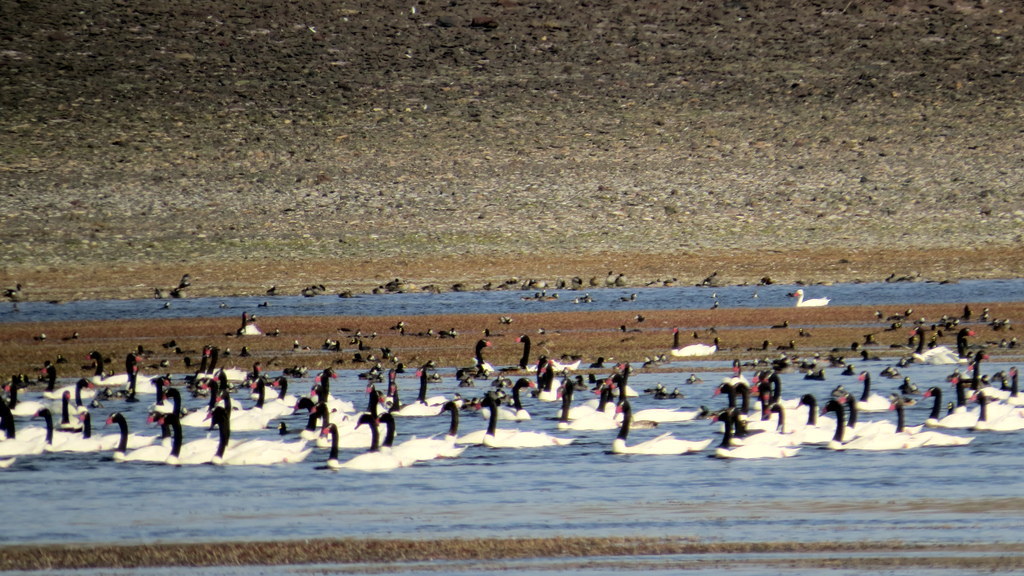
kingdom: Animalia
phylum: Chordata
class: Aves
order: Anseriformes
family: Anatidae
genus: Cygnus
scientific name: Cygnus melancoryphus
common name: Black-necked swan
